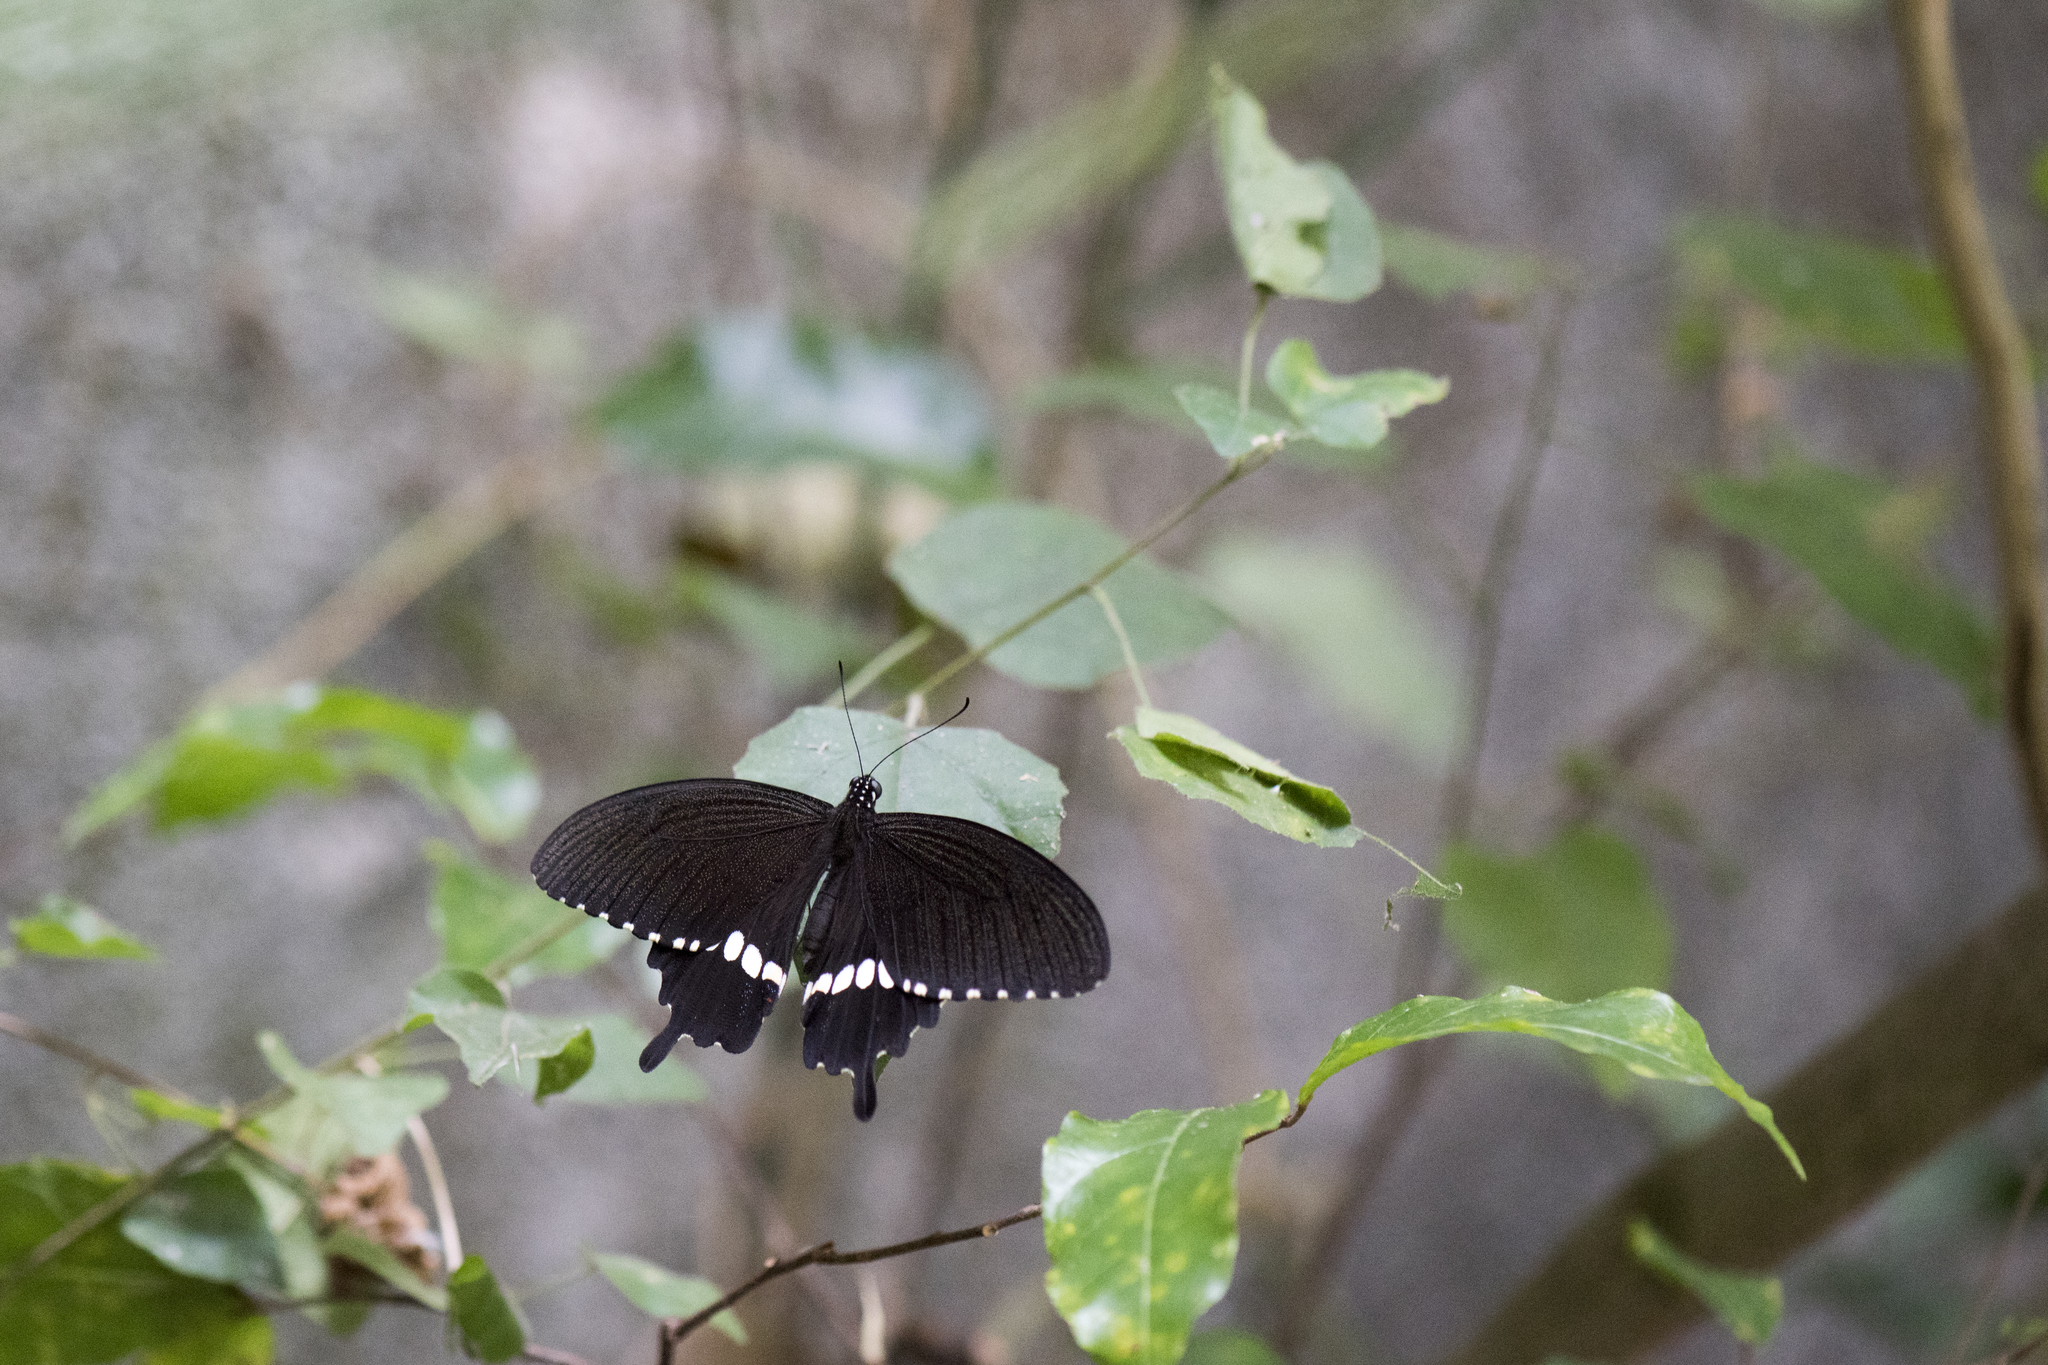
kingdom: Animalia
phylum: Arthropoda
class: Insecta
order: Lepidoptera
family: Papilionidae
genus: Papilio
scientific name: Papilio polytes
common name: Common mormon
